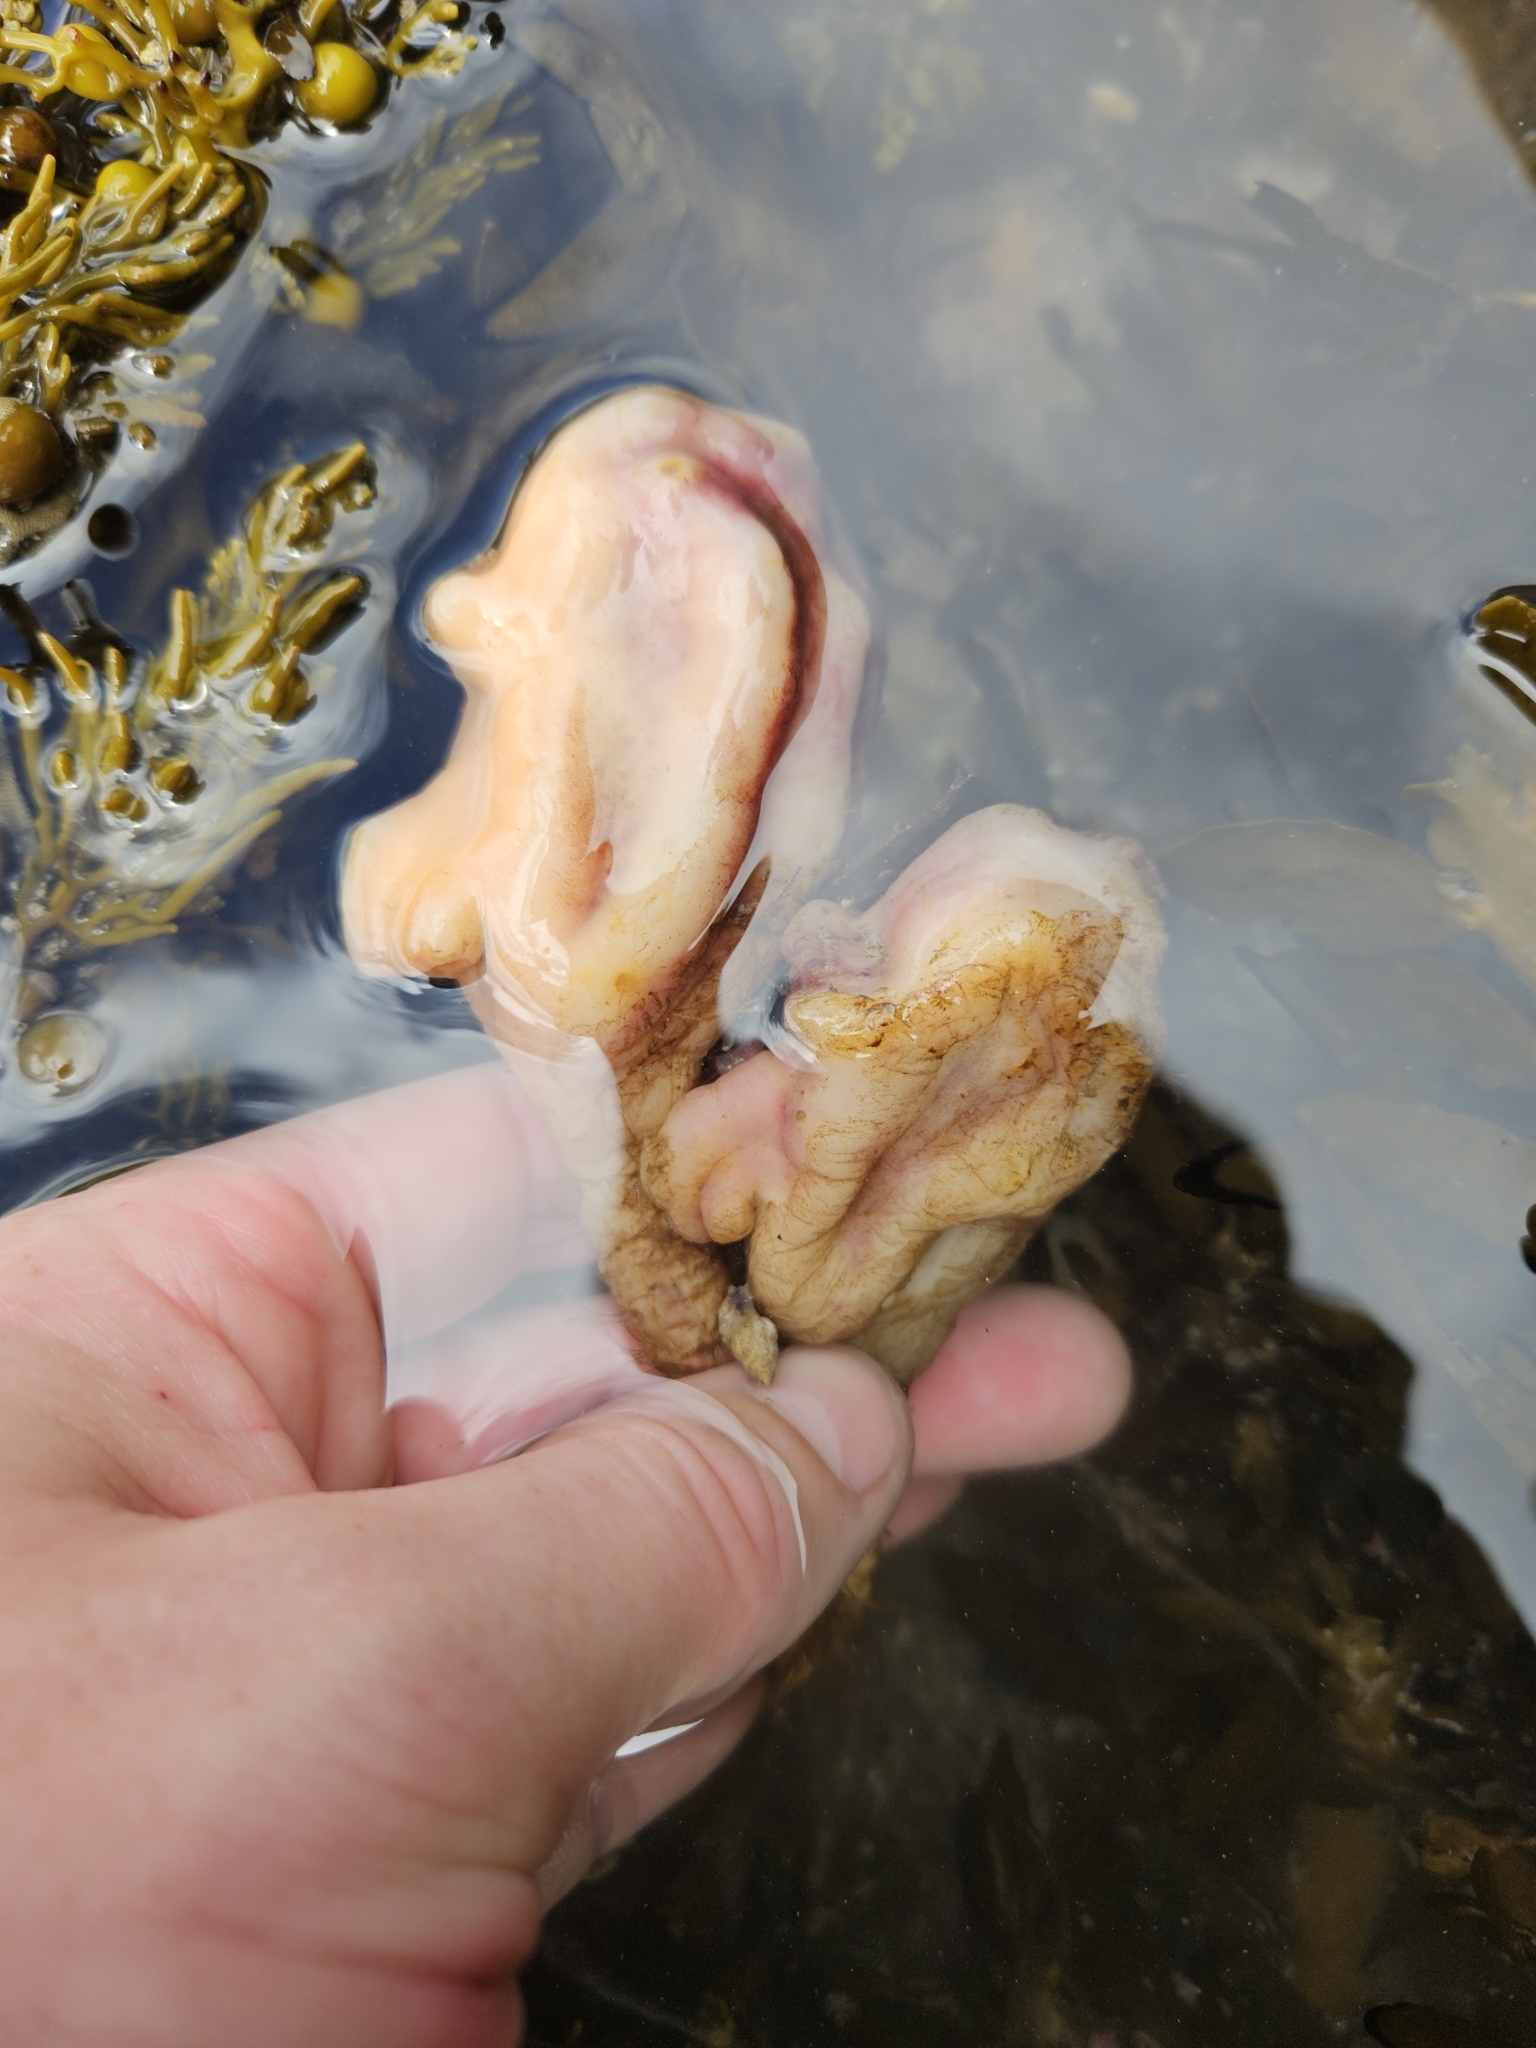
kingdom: Animalia
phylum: Chordata
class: Ascidiacea
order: Stolidobranchia
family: Pyuridae
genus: Pyura
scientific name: Pyura pachydermatina
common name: Sea tulip
